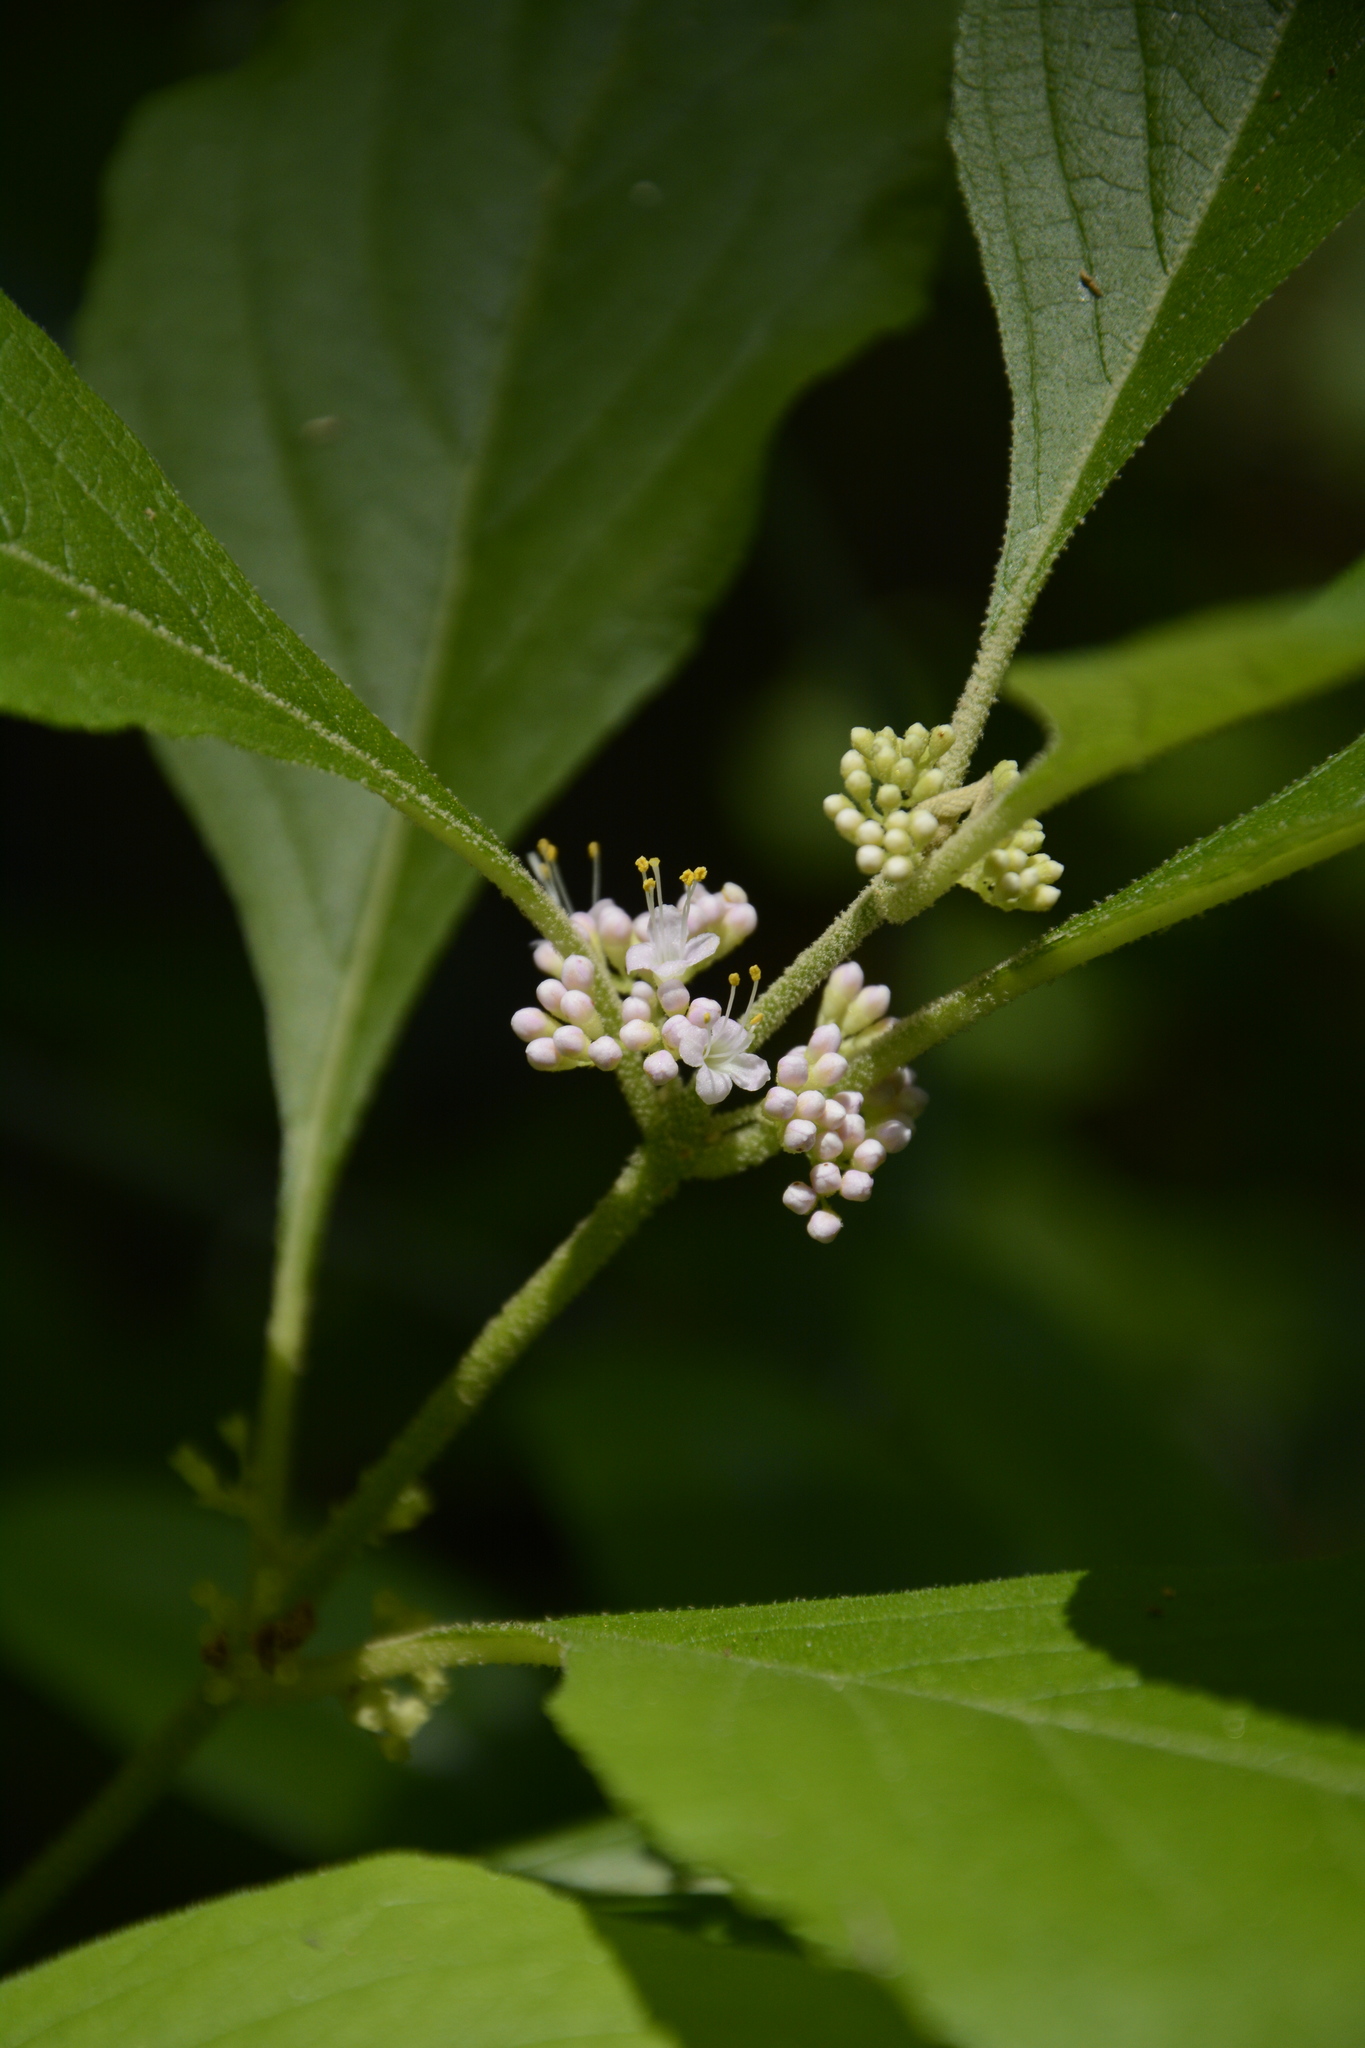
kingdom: Plantae
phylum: Tracheophyta
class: Magnoliopsida
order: Lamiales
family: Lamiaceae
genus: Callicarpa
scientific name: Callicarpa americana
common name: American beautyberry
